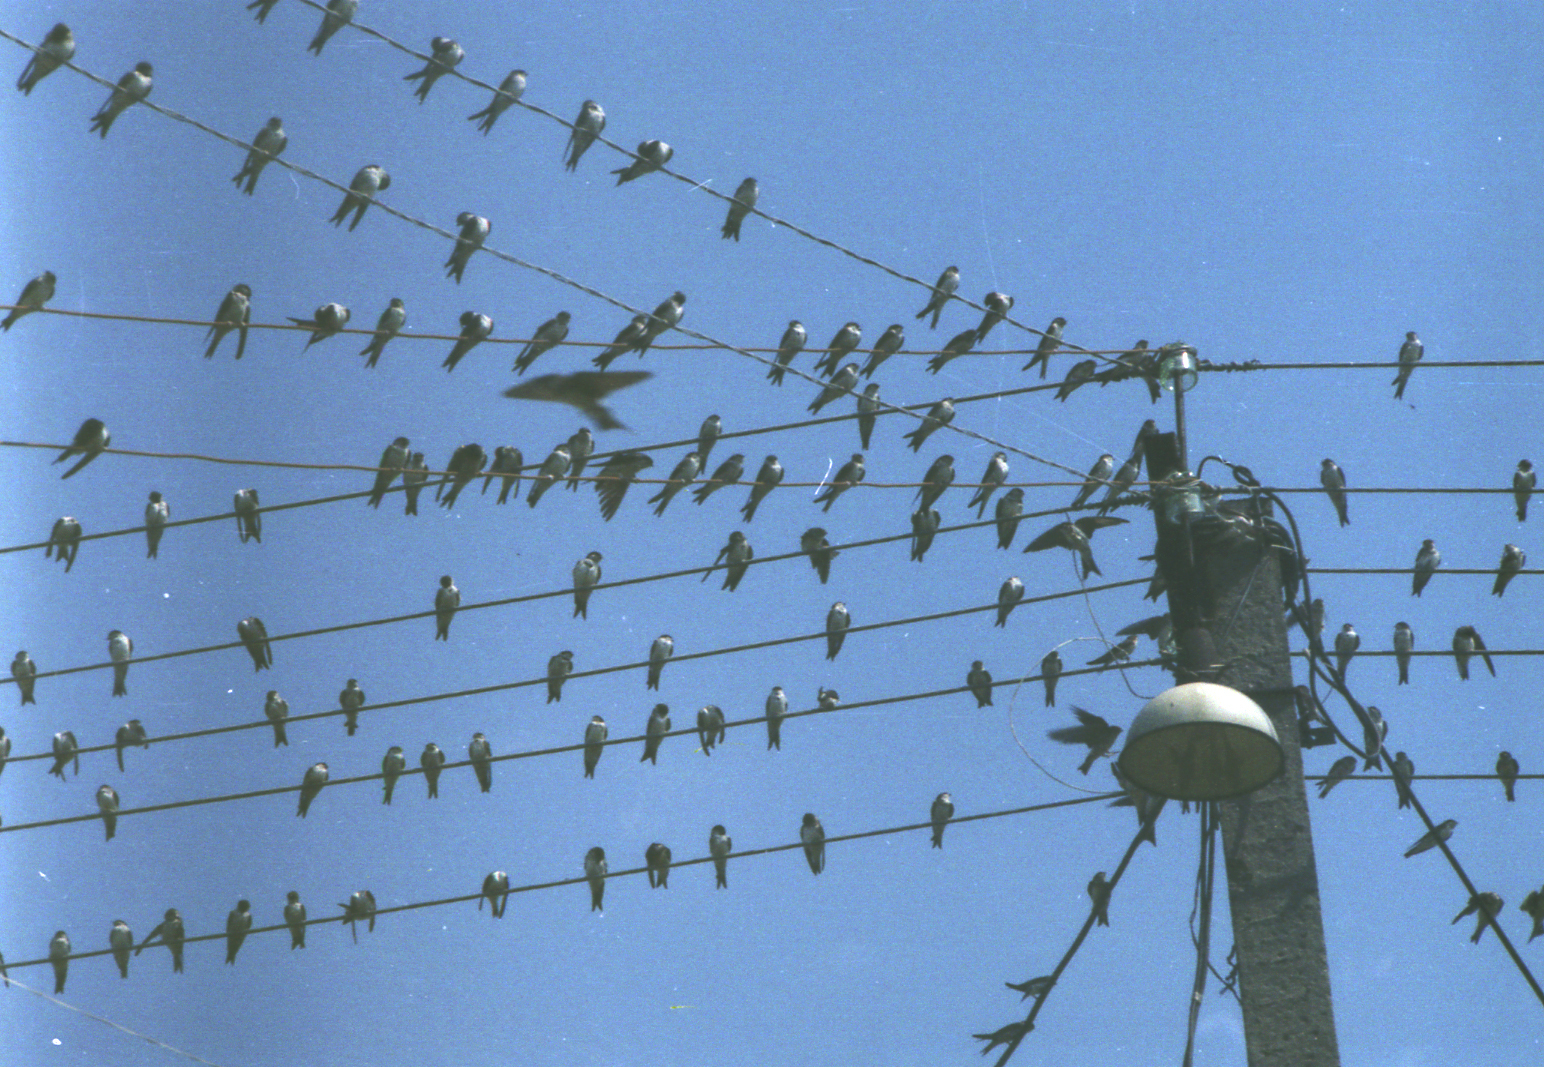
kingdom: Animalia
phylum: Chordata
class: Aves
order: Passeriformes
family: Hirundinidae
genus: Delichon
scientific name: Delichon urbicum
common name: Common house martin
